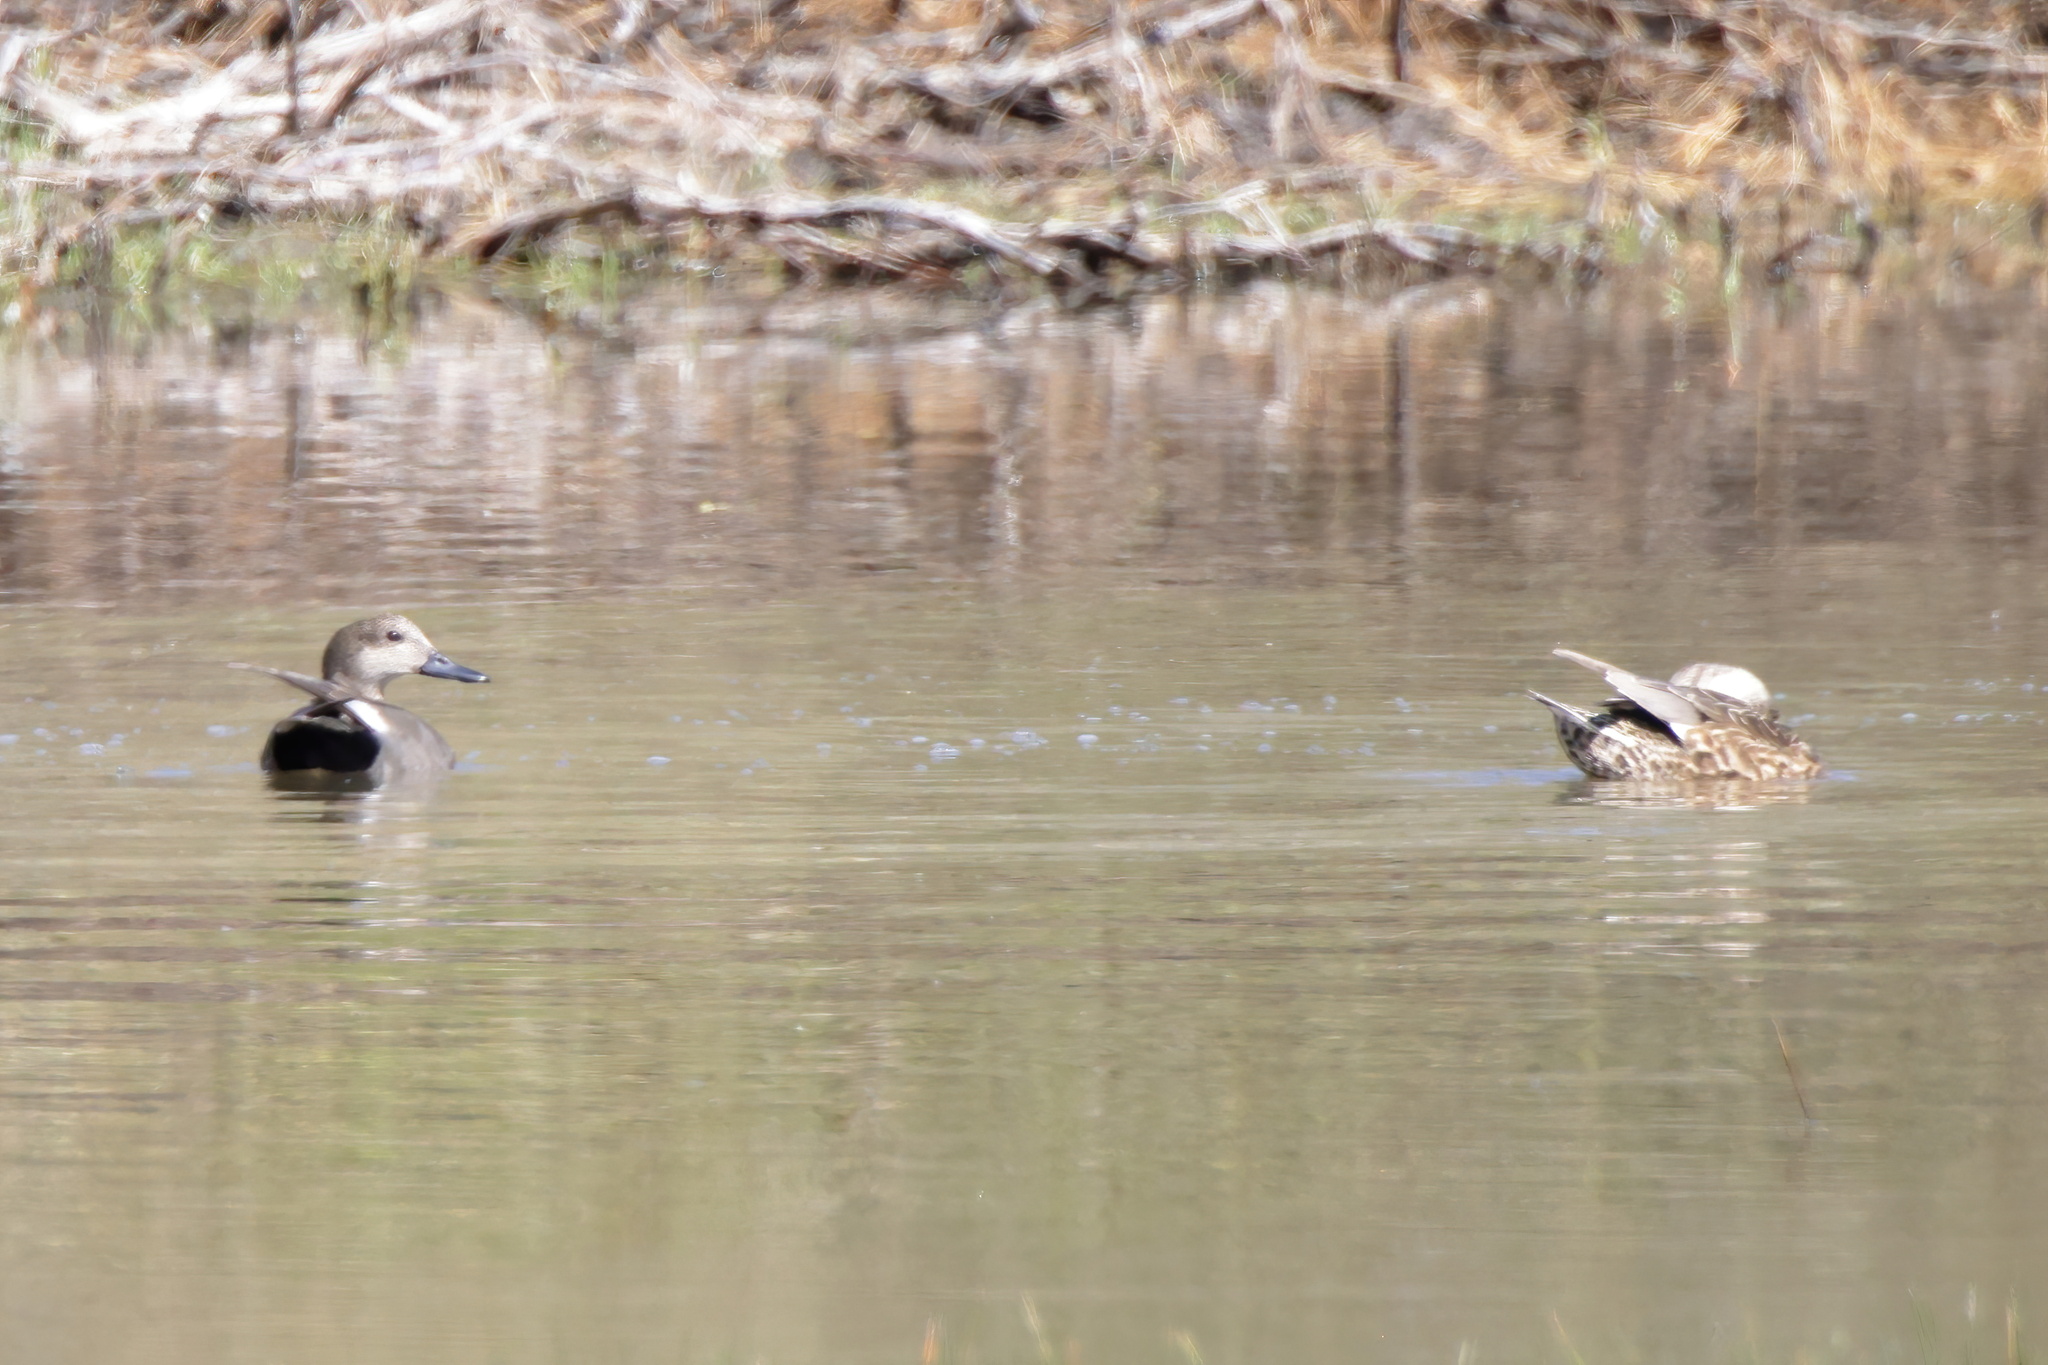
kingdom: Animalia
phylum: Chordata
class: Aves
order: Anseriformes
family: Anatidae
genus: Mareca
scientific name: Mareca strepera
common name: Gadwall
